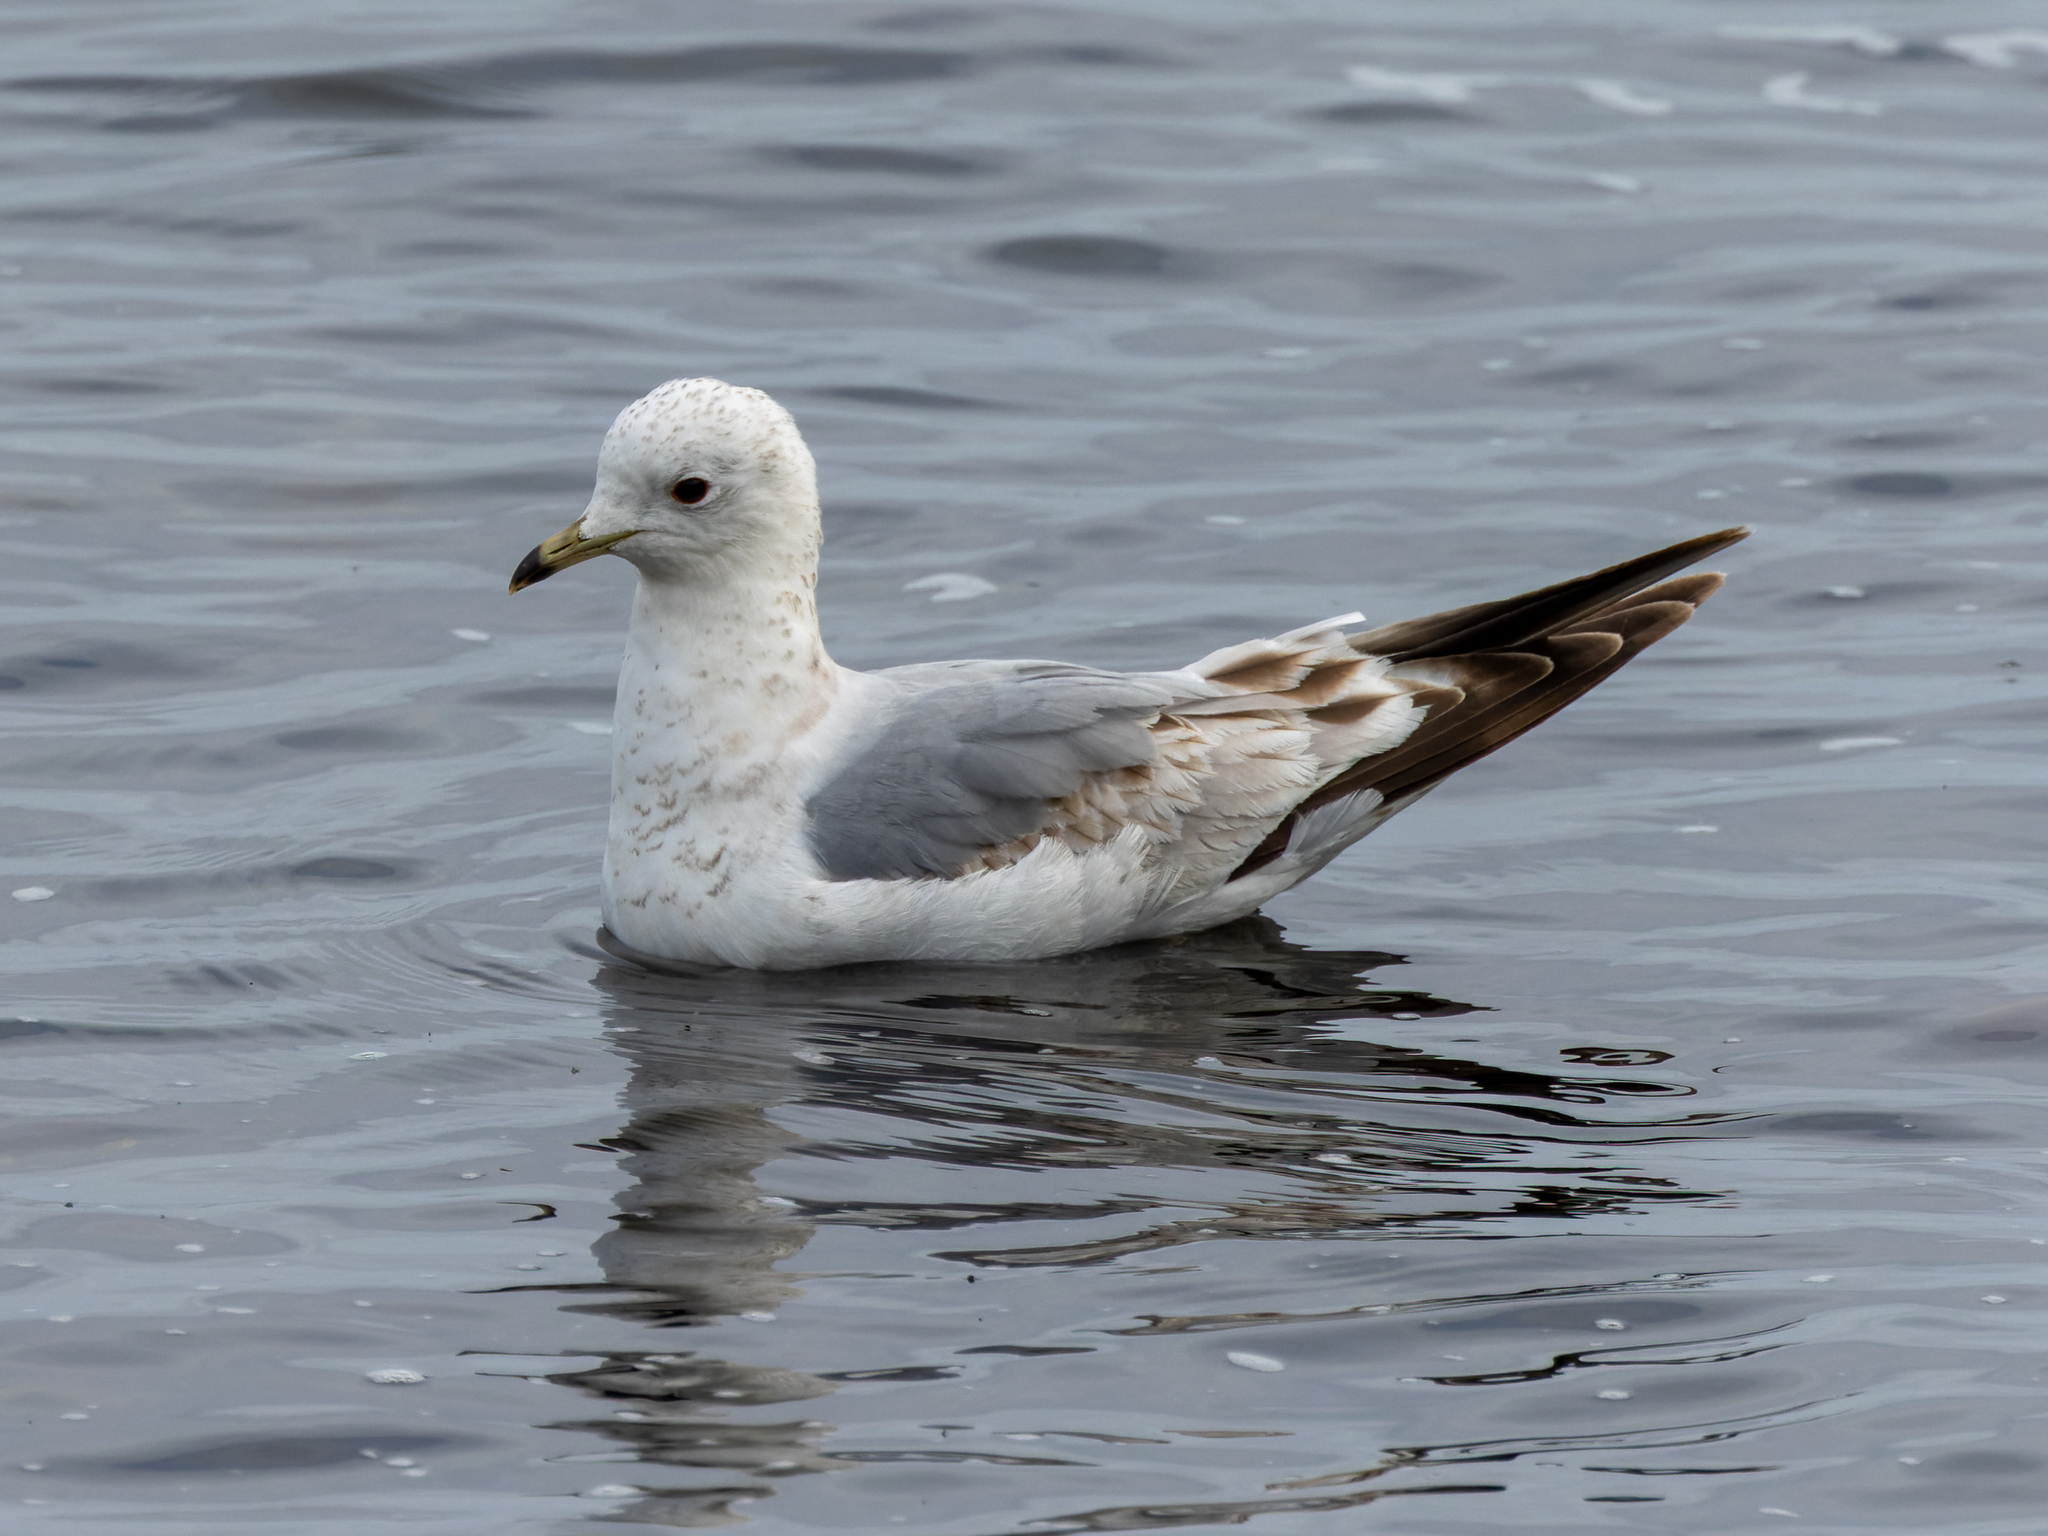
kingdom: Animalia
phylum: Chordata
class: Aves
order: Charadriiformes
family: Laridae
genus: Larus
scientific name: Larus canus
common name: Mew gull
